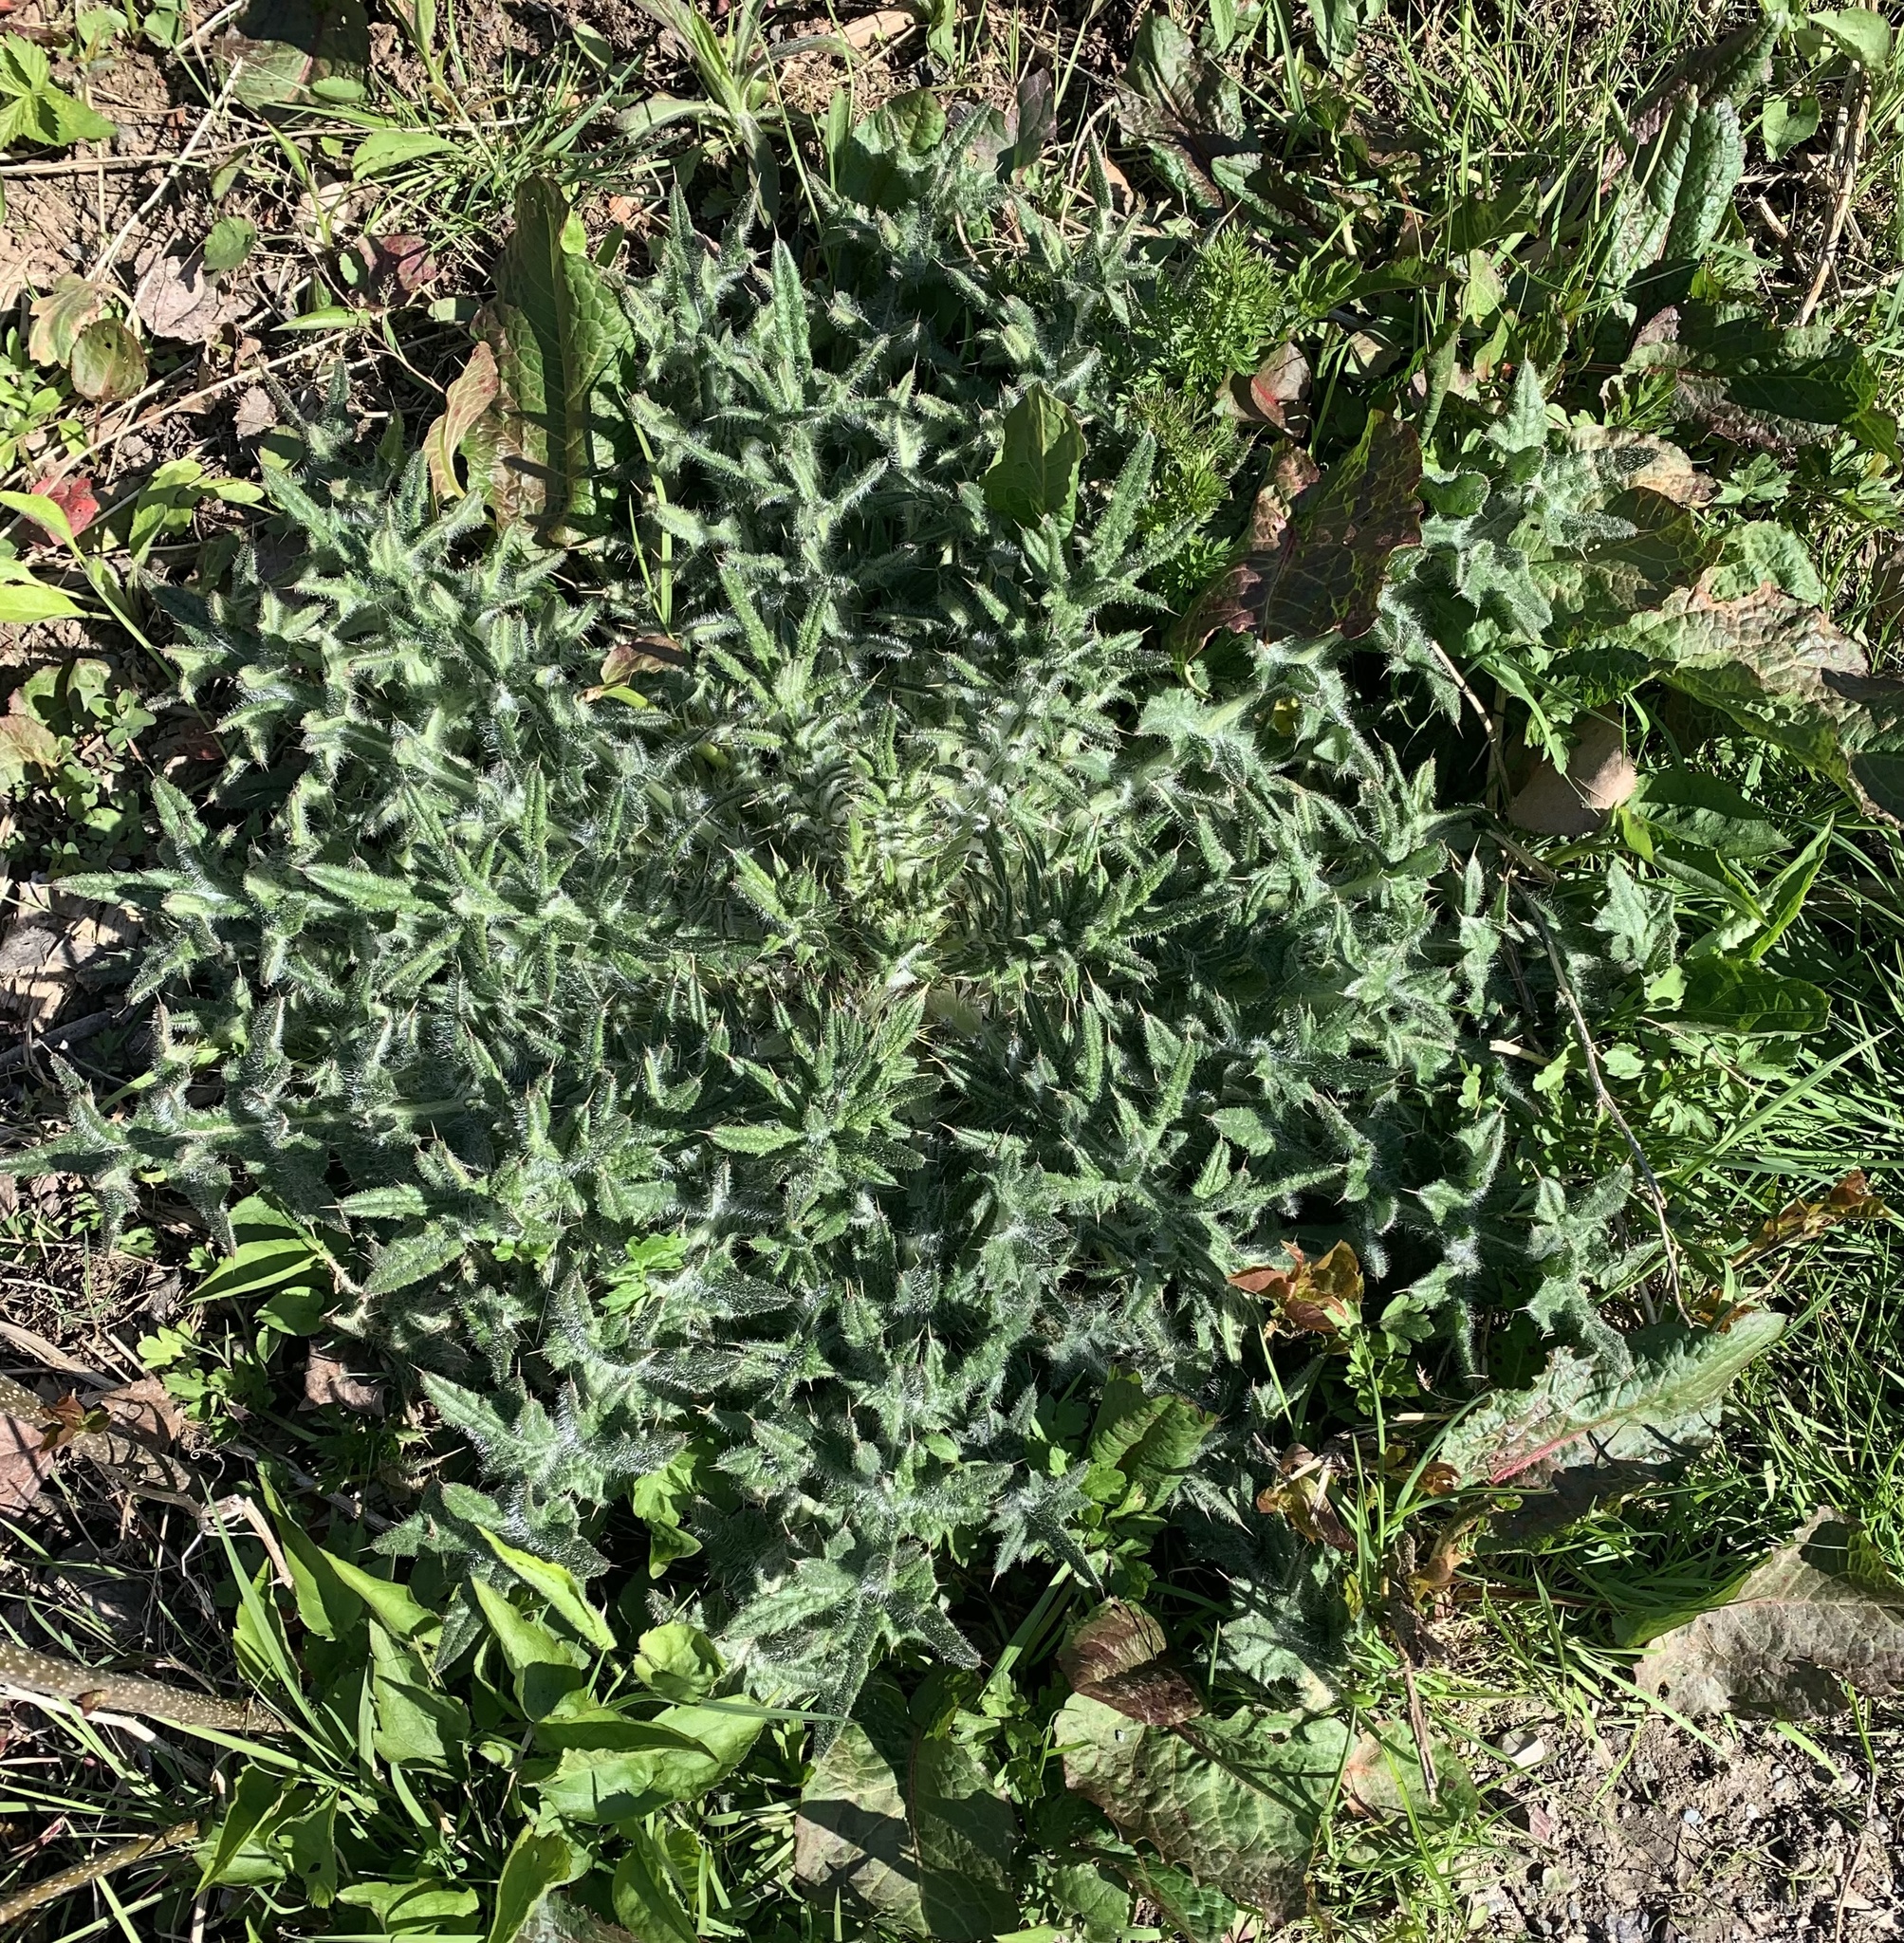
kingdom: Plantae
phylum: Tracheophyta
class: Magnoliopsida
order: Asterales
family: Asteraceae
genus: Cirsium
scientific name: Cirsium vulgare
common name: Bull thistle
